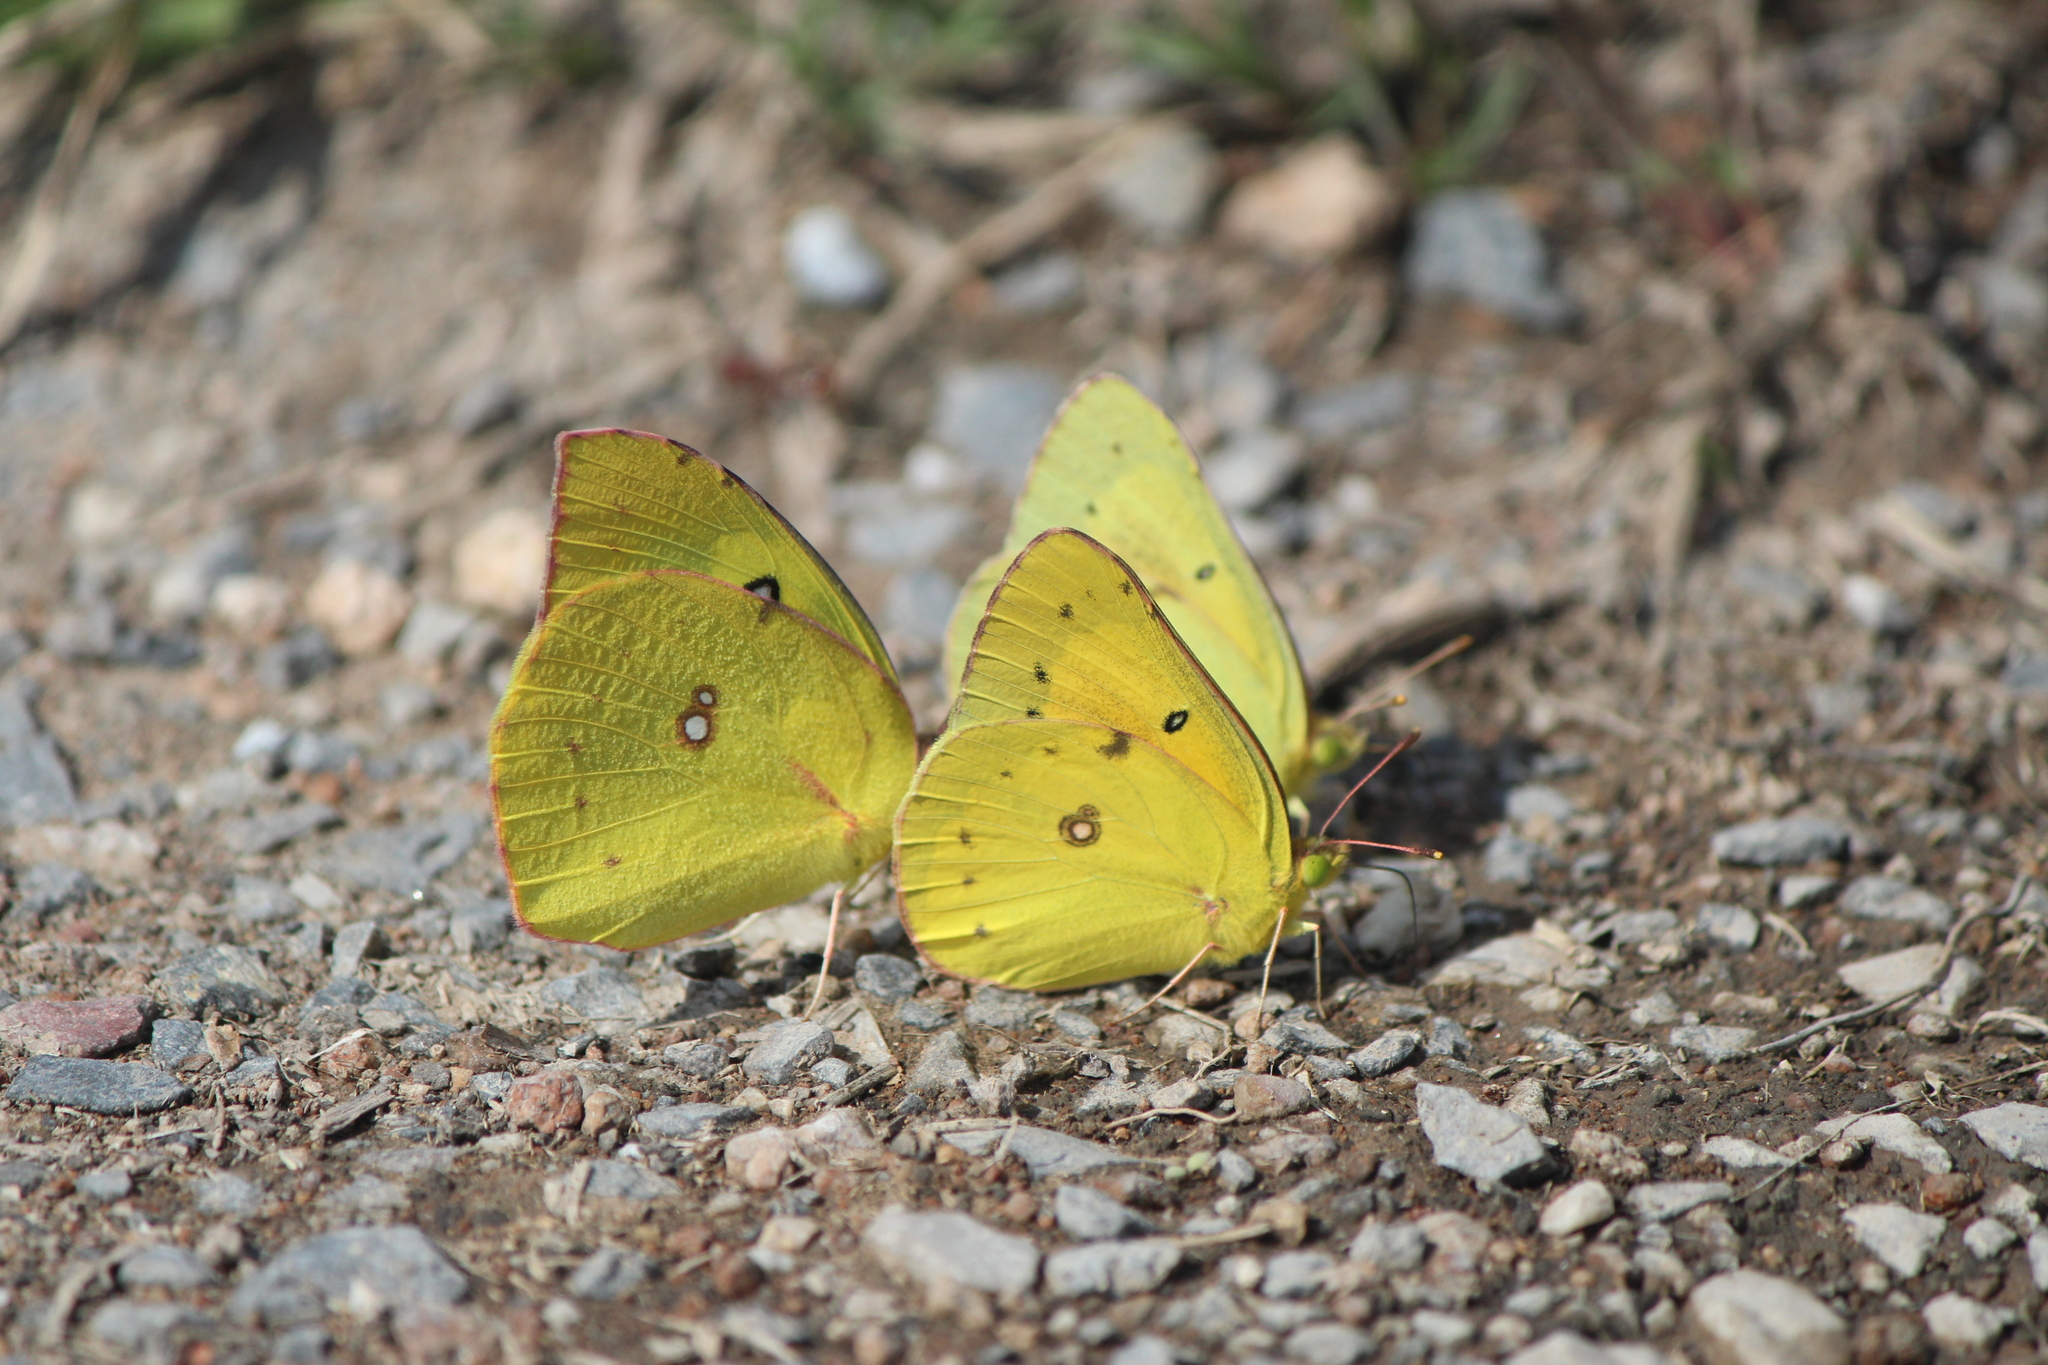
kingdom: Animalia
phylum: Arthropoda
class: Insecta
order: Lepidoptera
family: Pieridae
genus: Zerene
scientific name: Zerene cesonia
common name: Southern dogface
